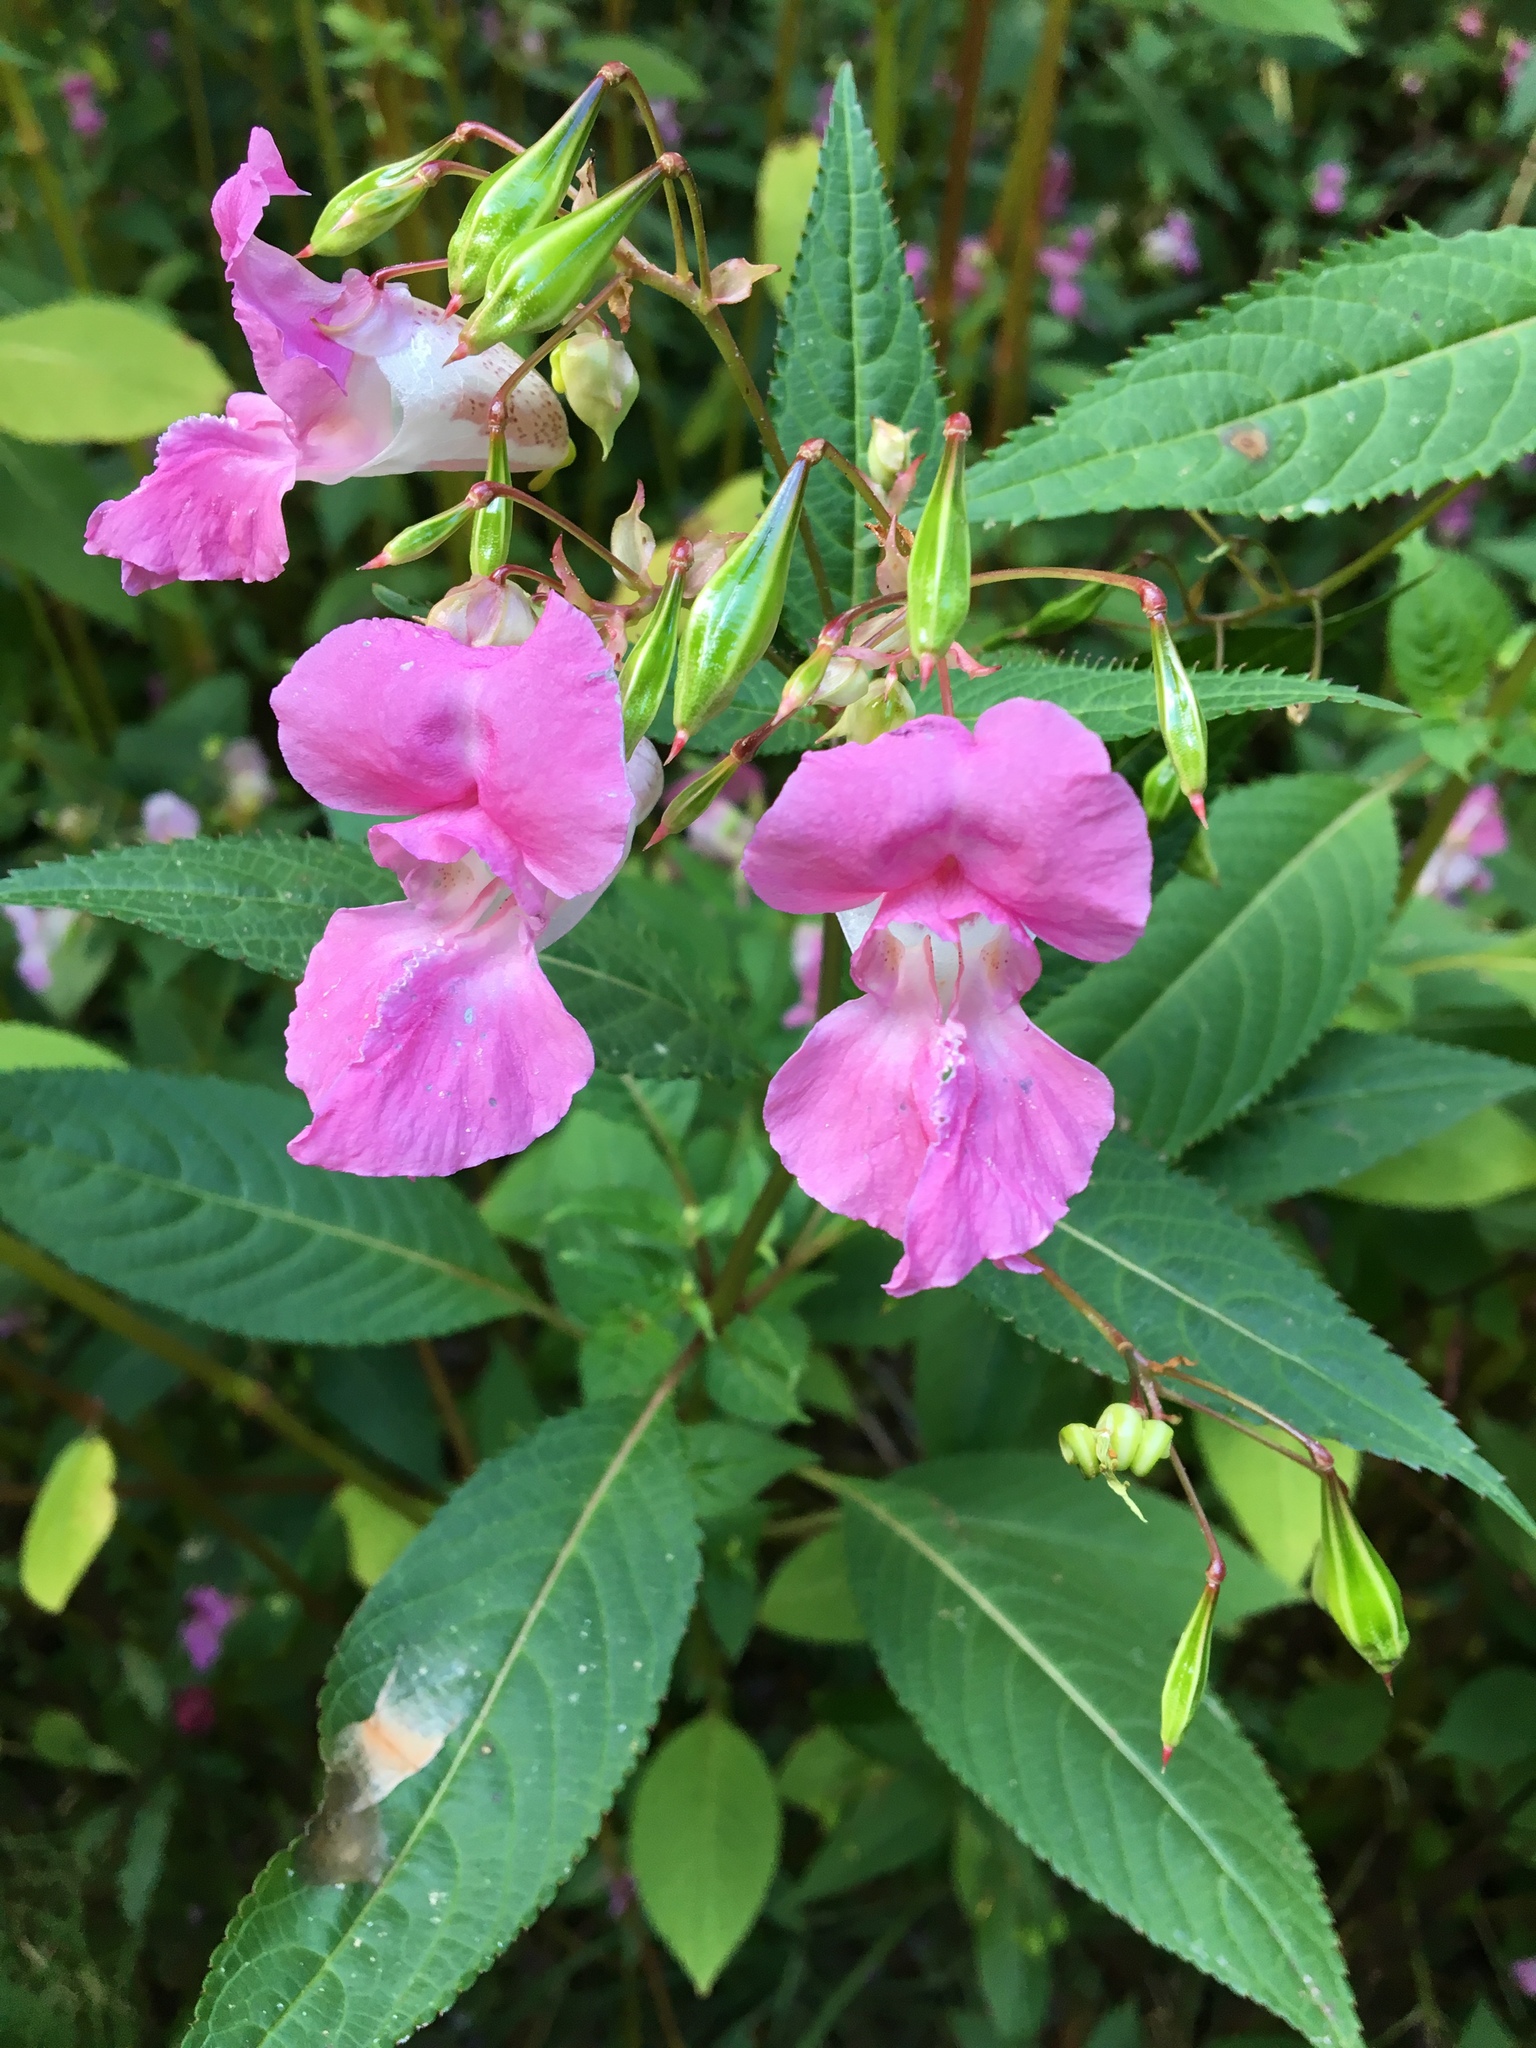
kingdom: Plantae
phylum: Tracheophyta
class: Magnoliopsida
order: Ericales
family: Balsaminaceae
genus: Impatiens
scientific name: Impatiens glandulifera
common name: Himalayan balsam
